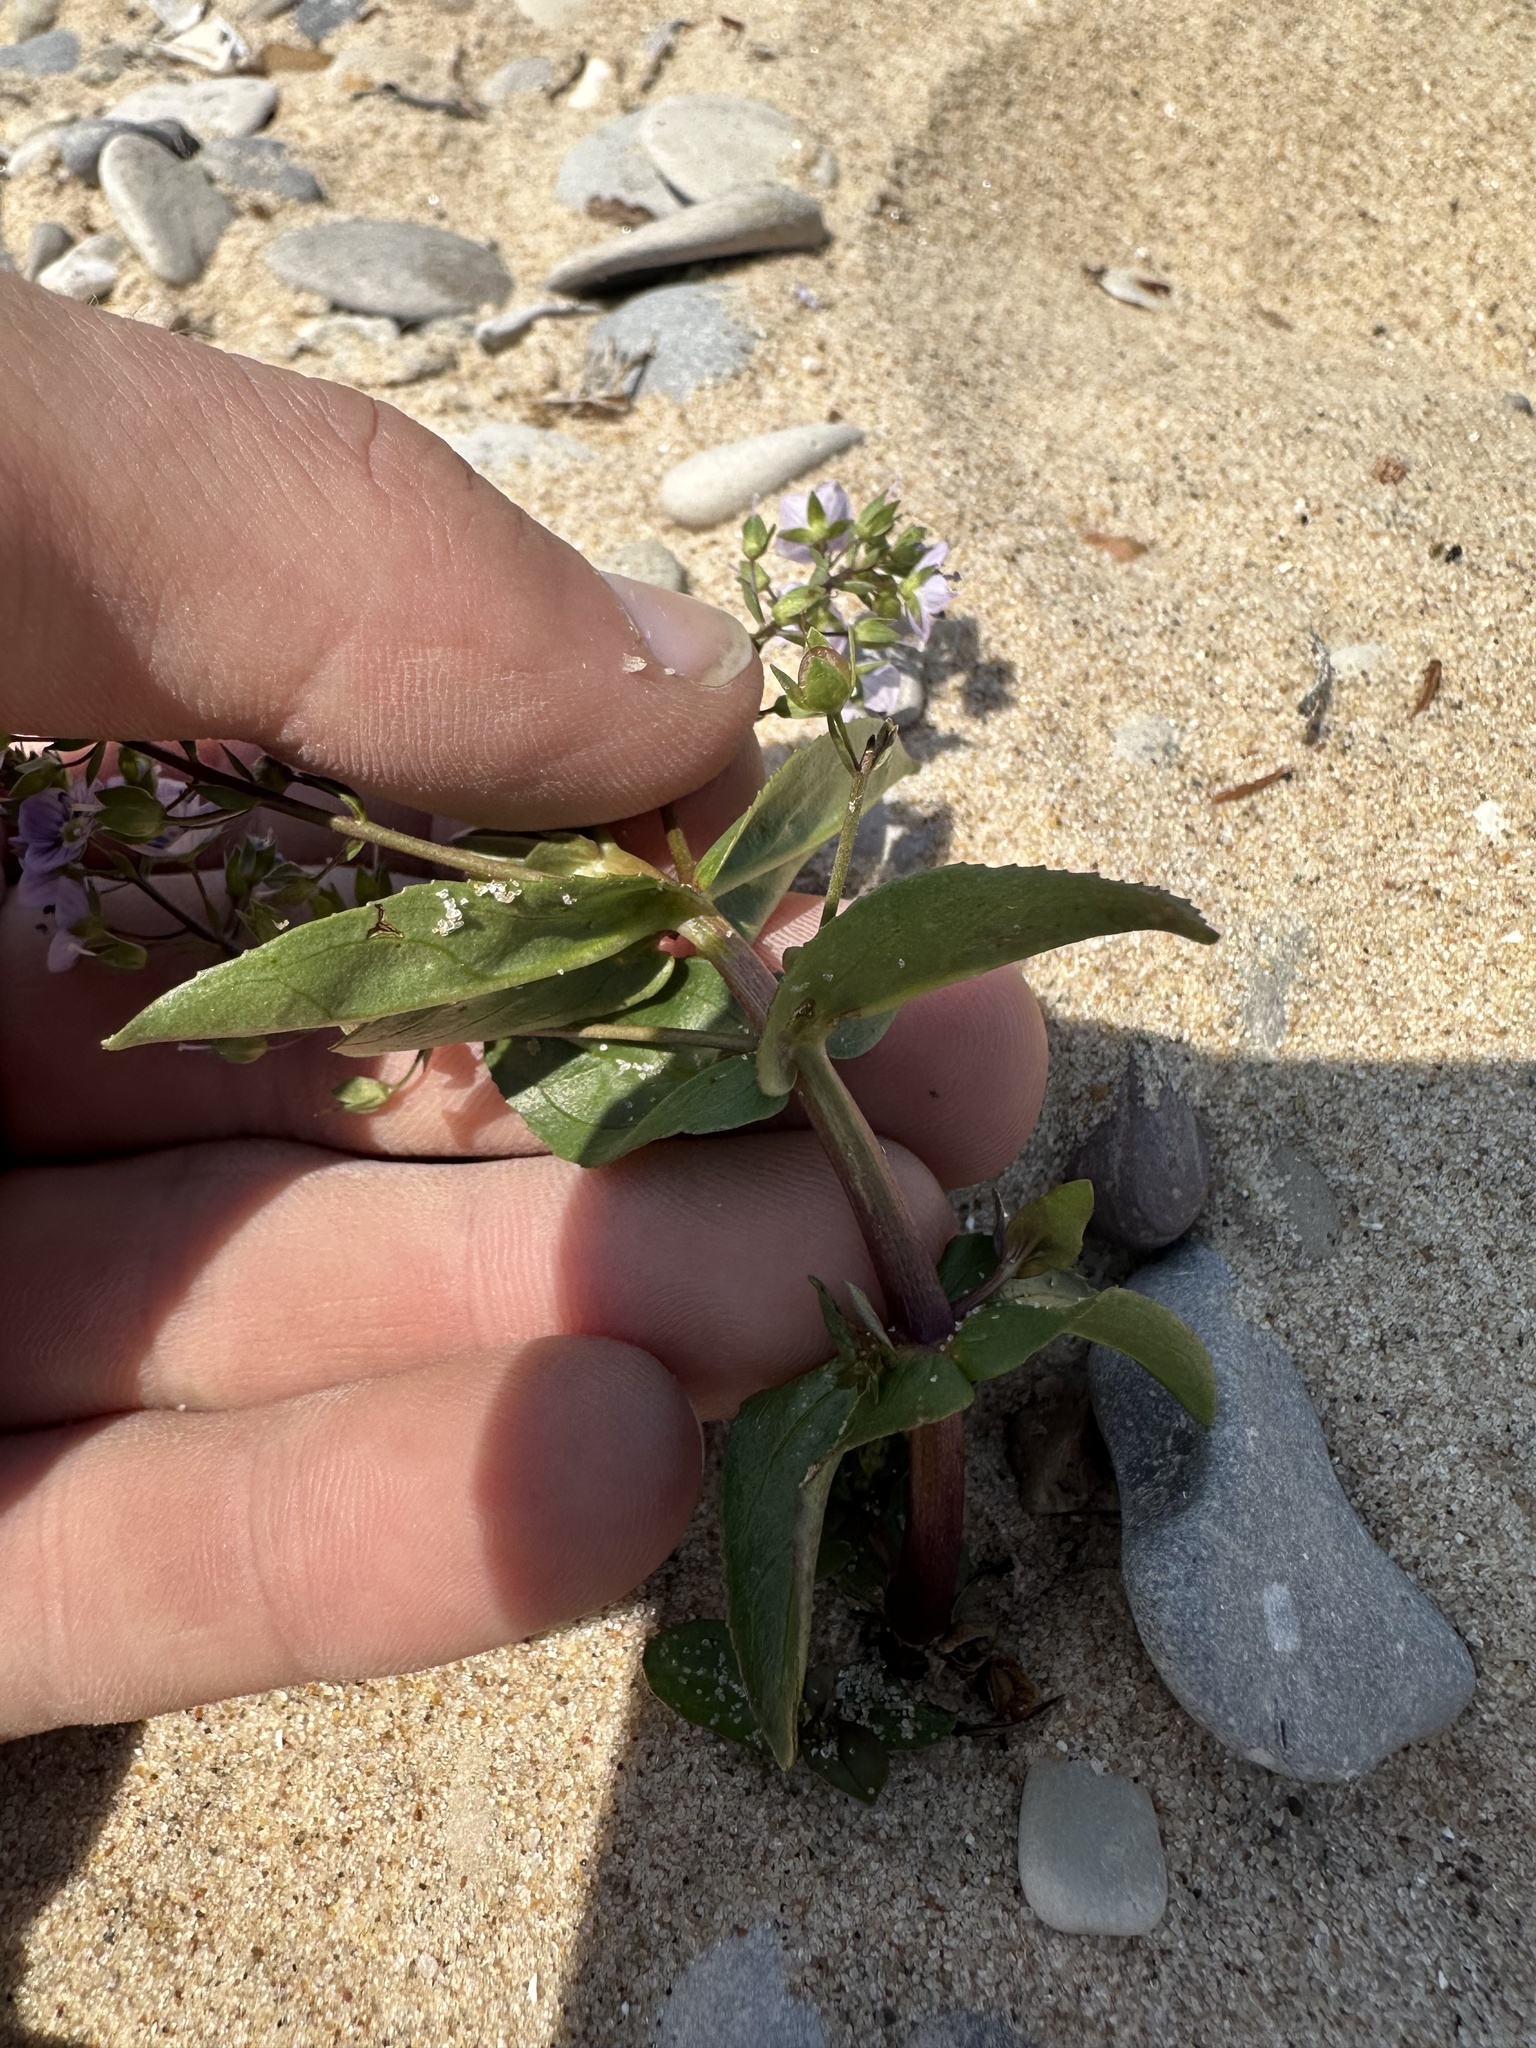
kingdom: Plantae
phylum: Tracheophyta
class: Magnoliopsida
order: Lamiales
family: Plantaginaceae
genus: Veronica
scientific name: Veronica anagallis-aquatica
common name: Water speedwell
